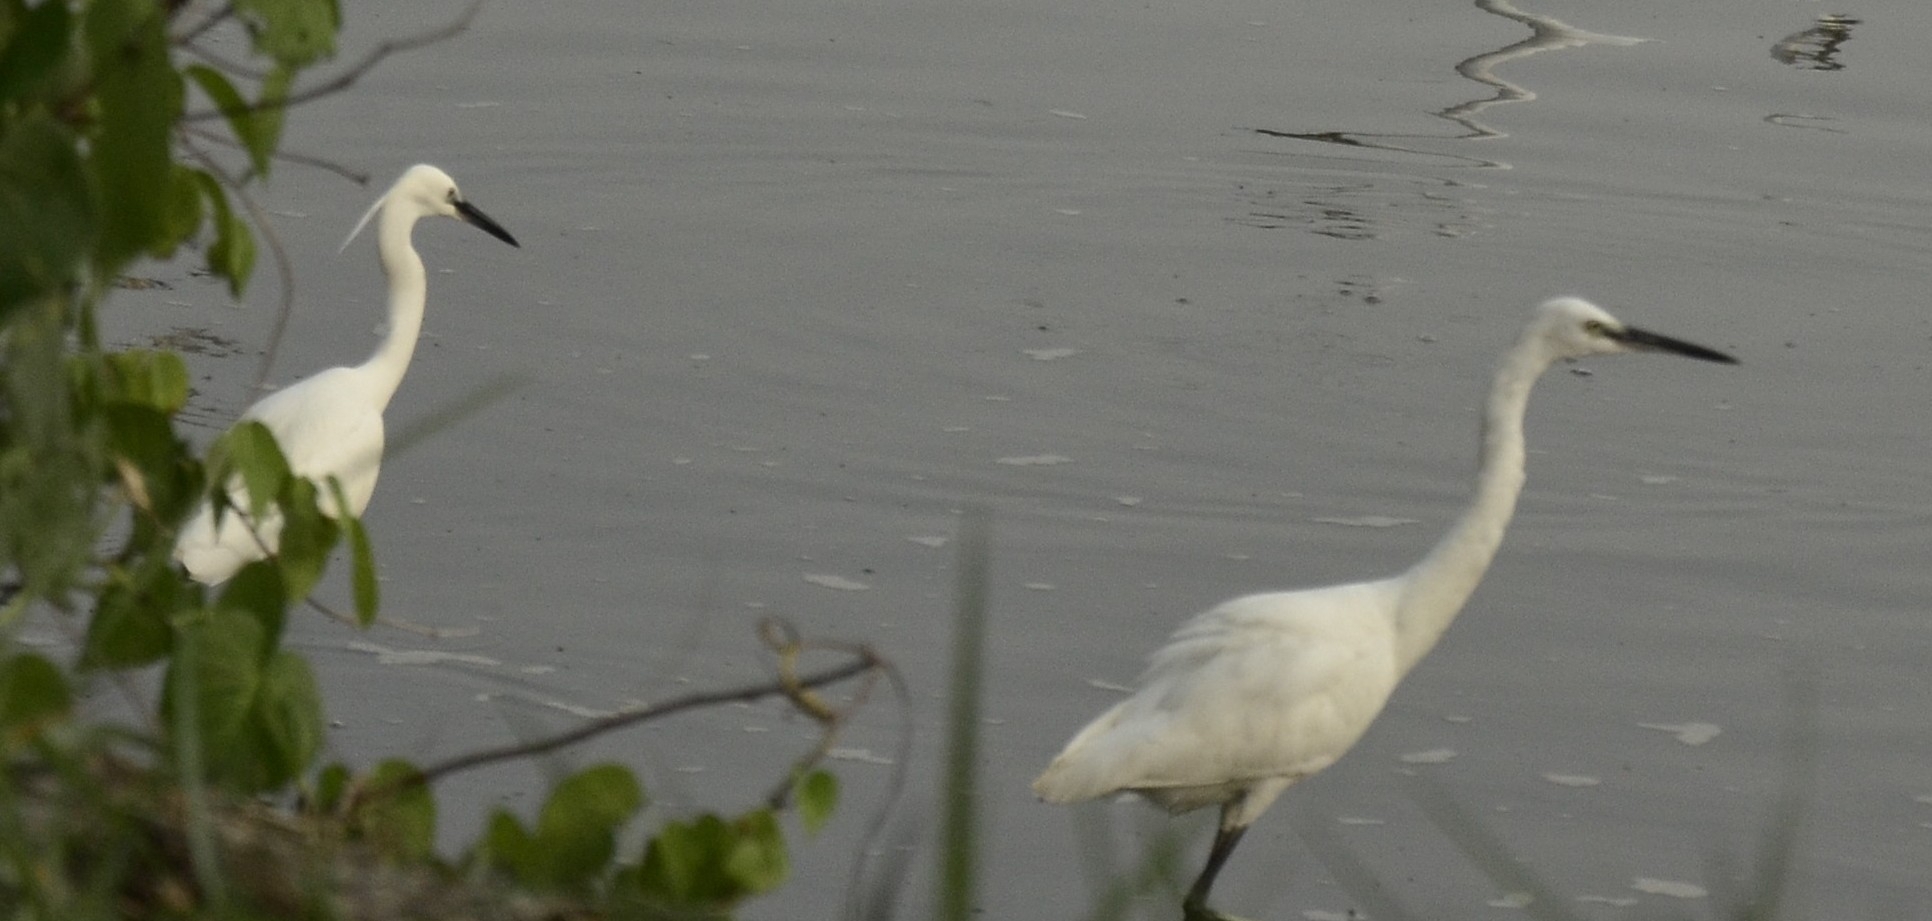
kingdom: Animalia
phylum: Chordata
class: Aves
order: Pelecaniformes
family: Ardeidae
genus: Egretta
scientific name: Egretta garzetta
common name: Little egret
